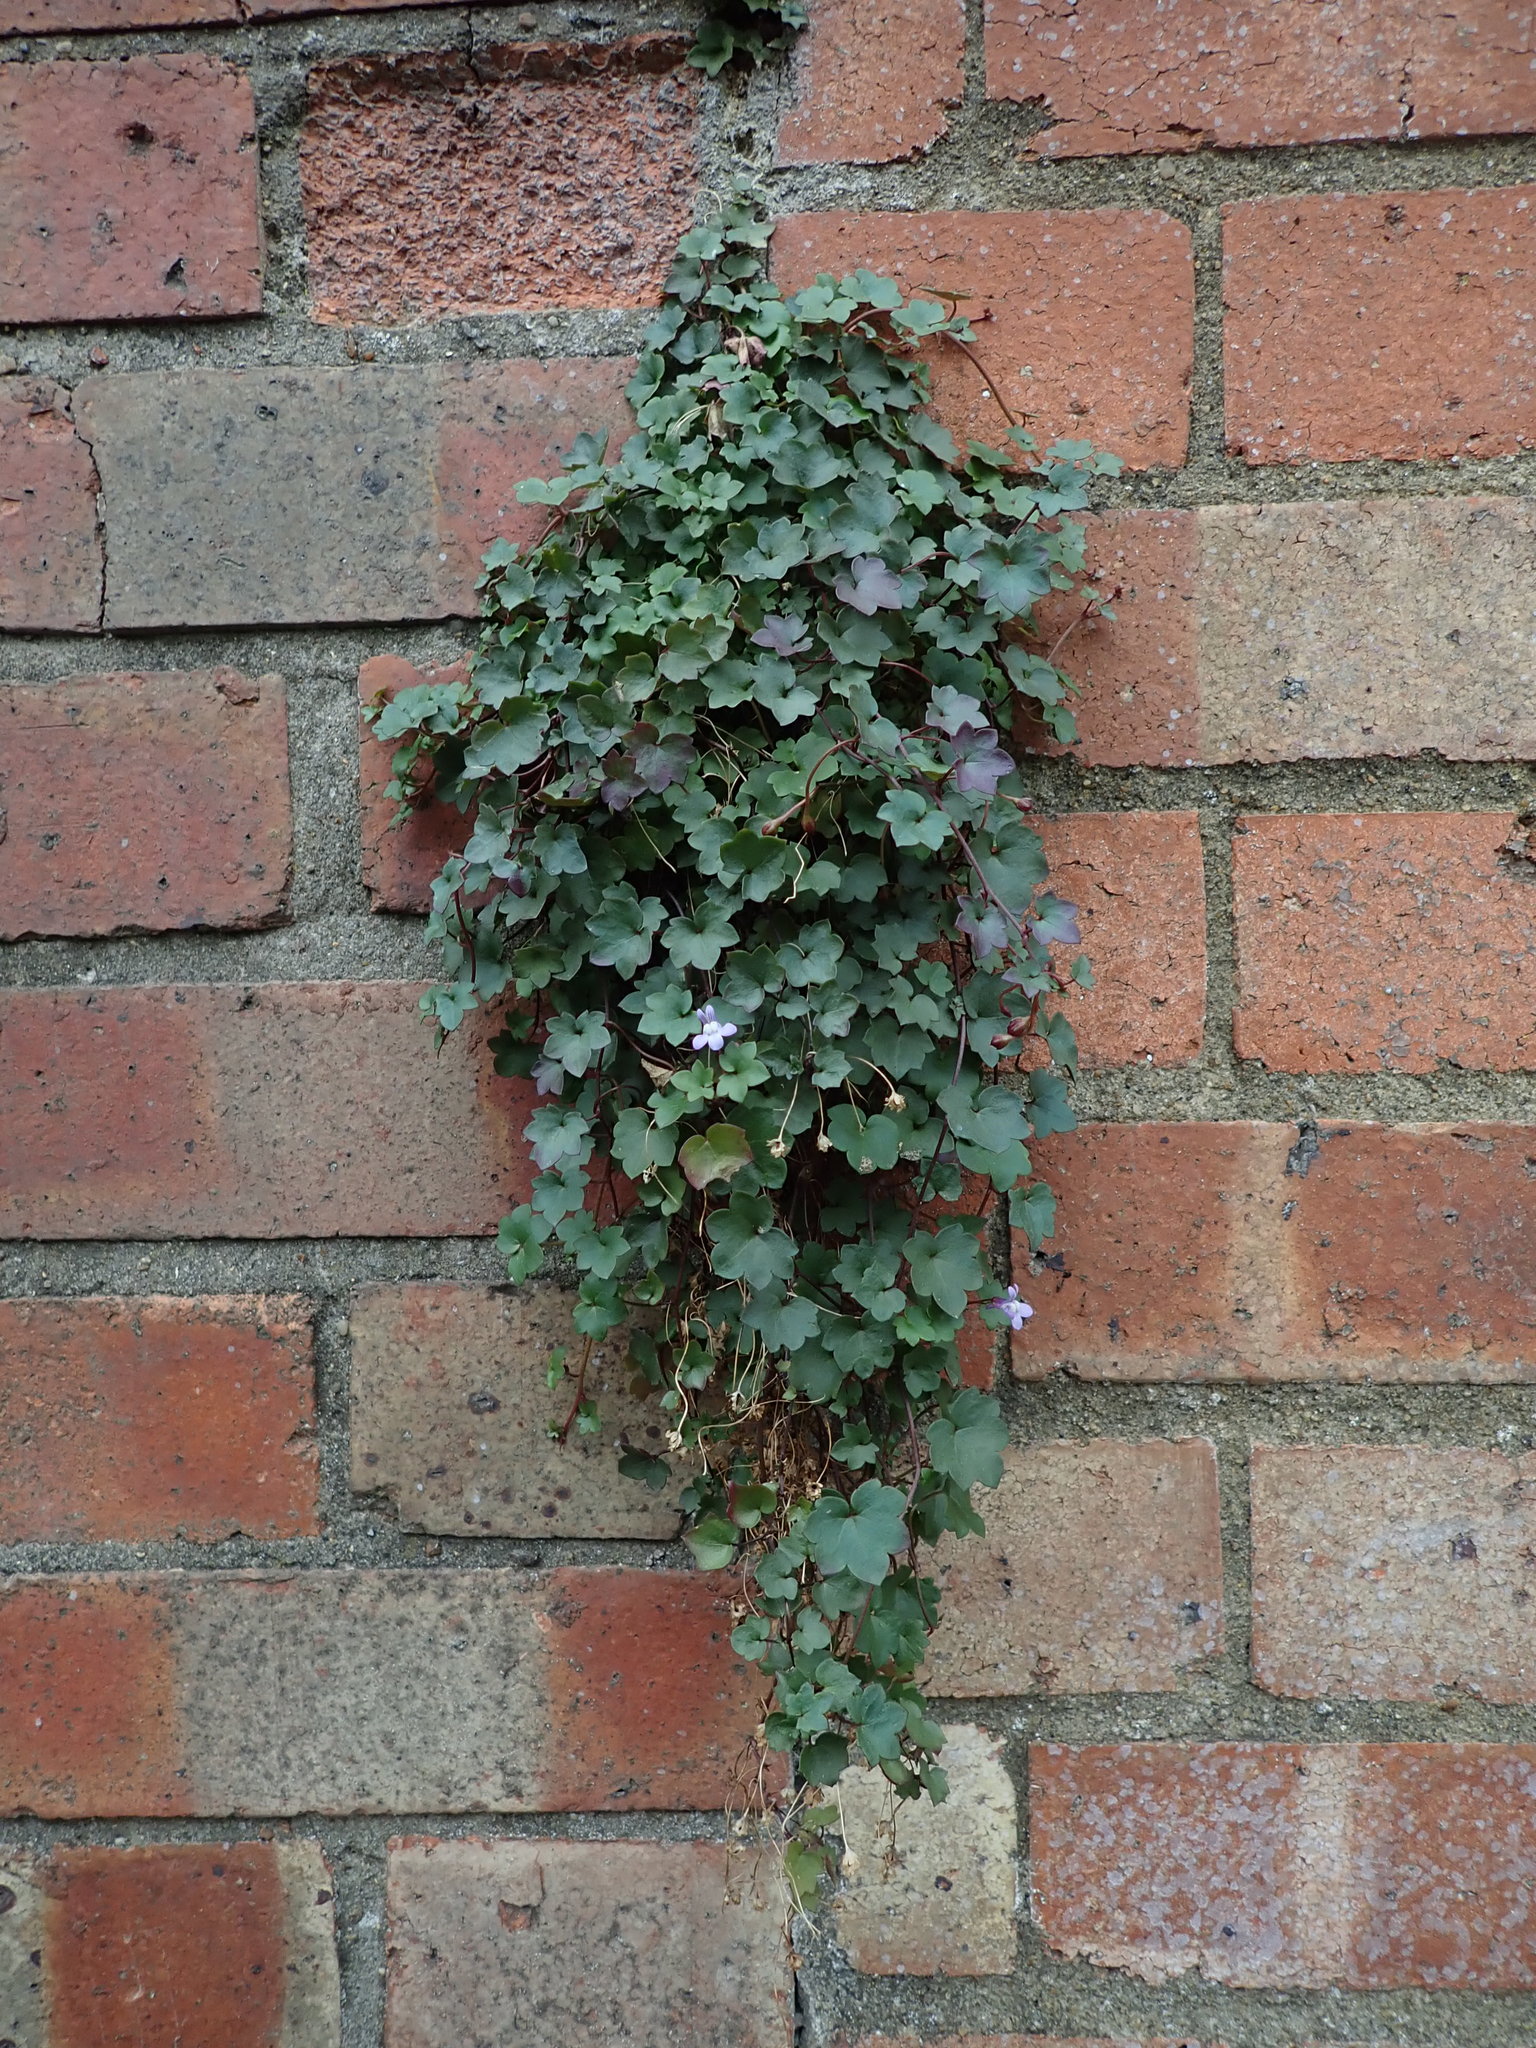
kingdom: Plantae
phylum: Tracheophyta
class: Magnoliopsida
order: Lamiales
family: Plantaginaceae
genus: Cymbalaria
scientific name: Cymbalaria muralis
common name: Ivy-leaved toadflax
